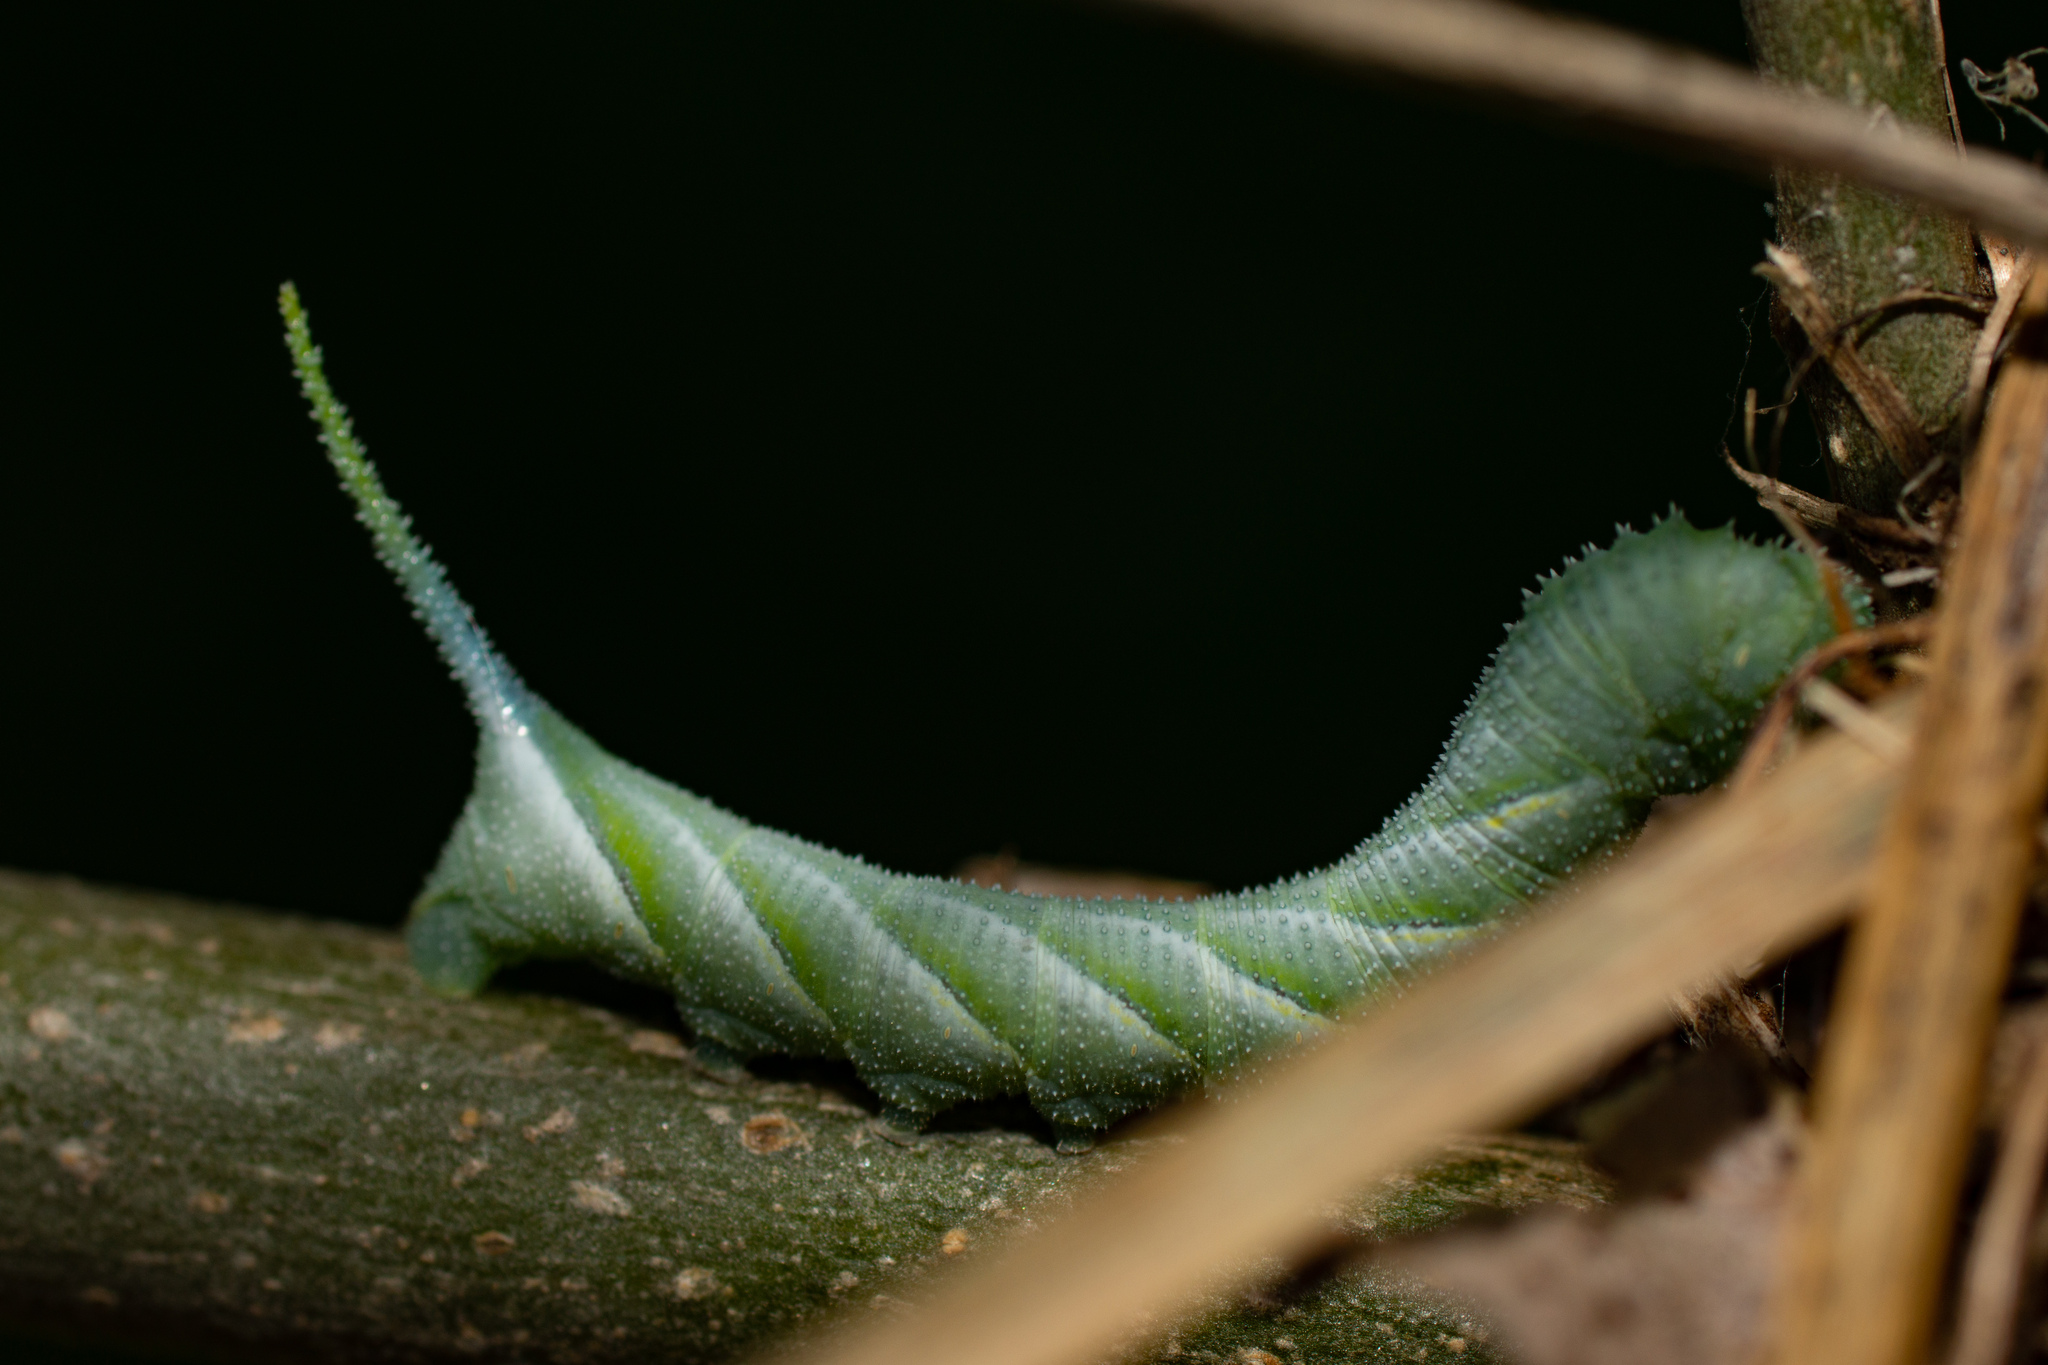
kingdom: Animalia
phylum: Arthropoda
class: Insecta
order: Lepidoptera
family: Sphingidae
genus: Acherontia
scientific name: Acherontia atropos
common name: Death's-head hawk moth
